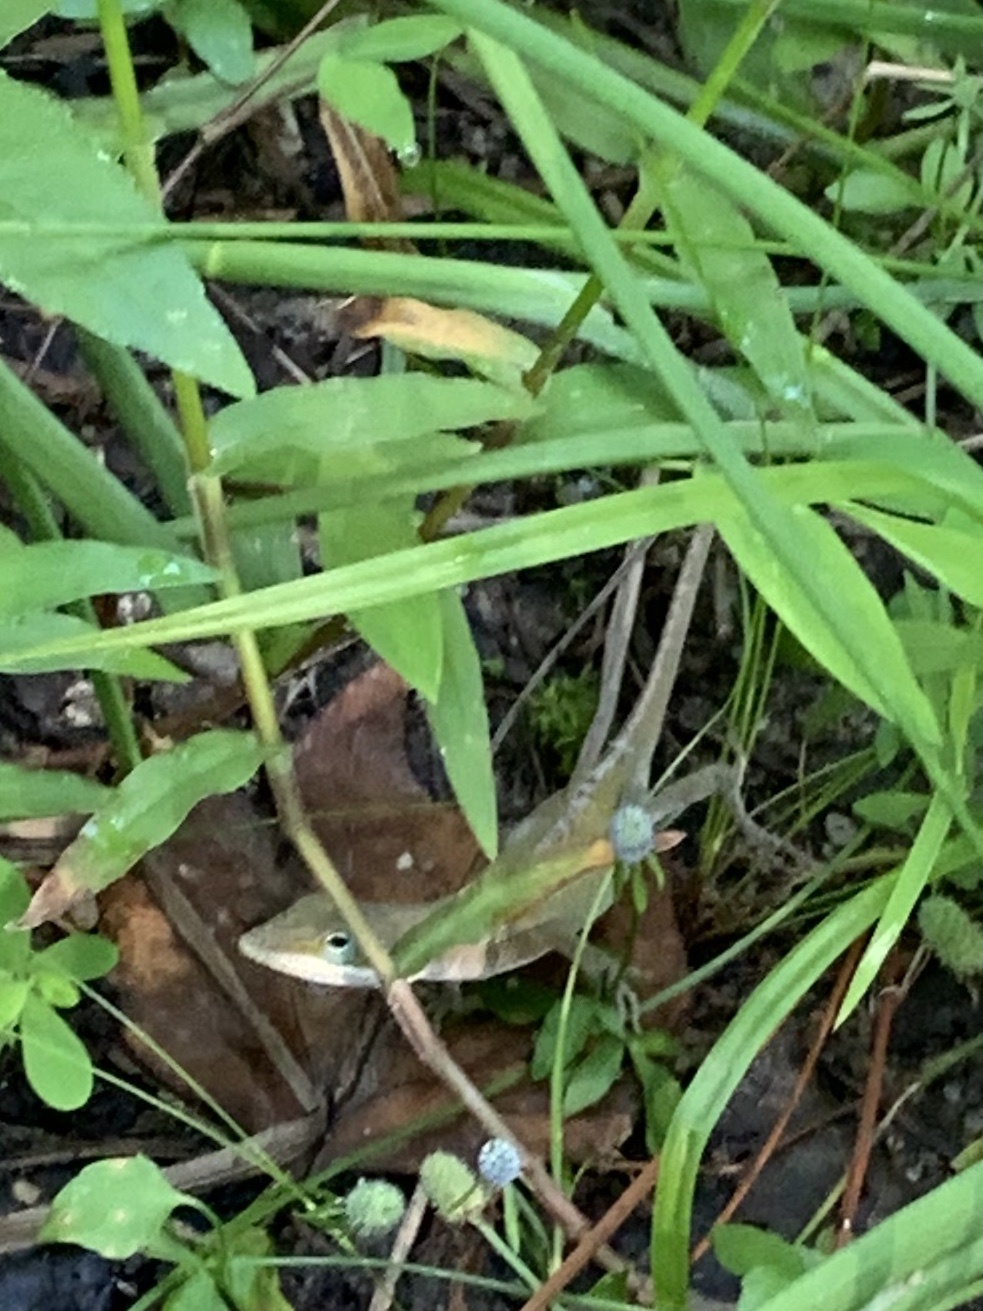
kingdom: Animalia
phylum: Chordata
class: Squamata
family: Dactyloidae
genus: Anolis
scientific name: Anolis carolinensis
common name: Green anole
